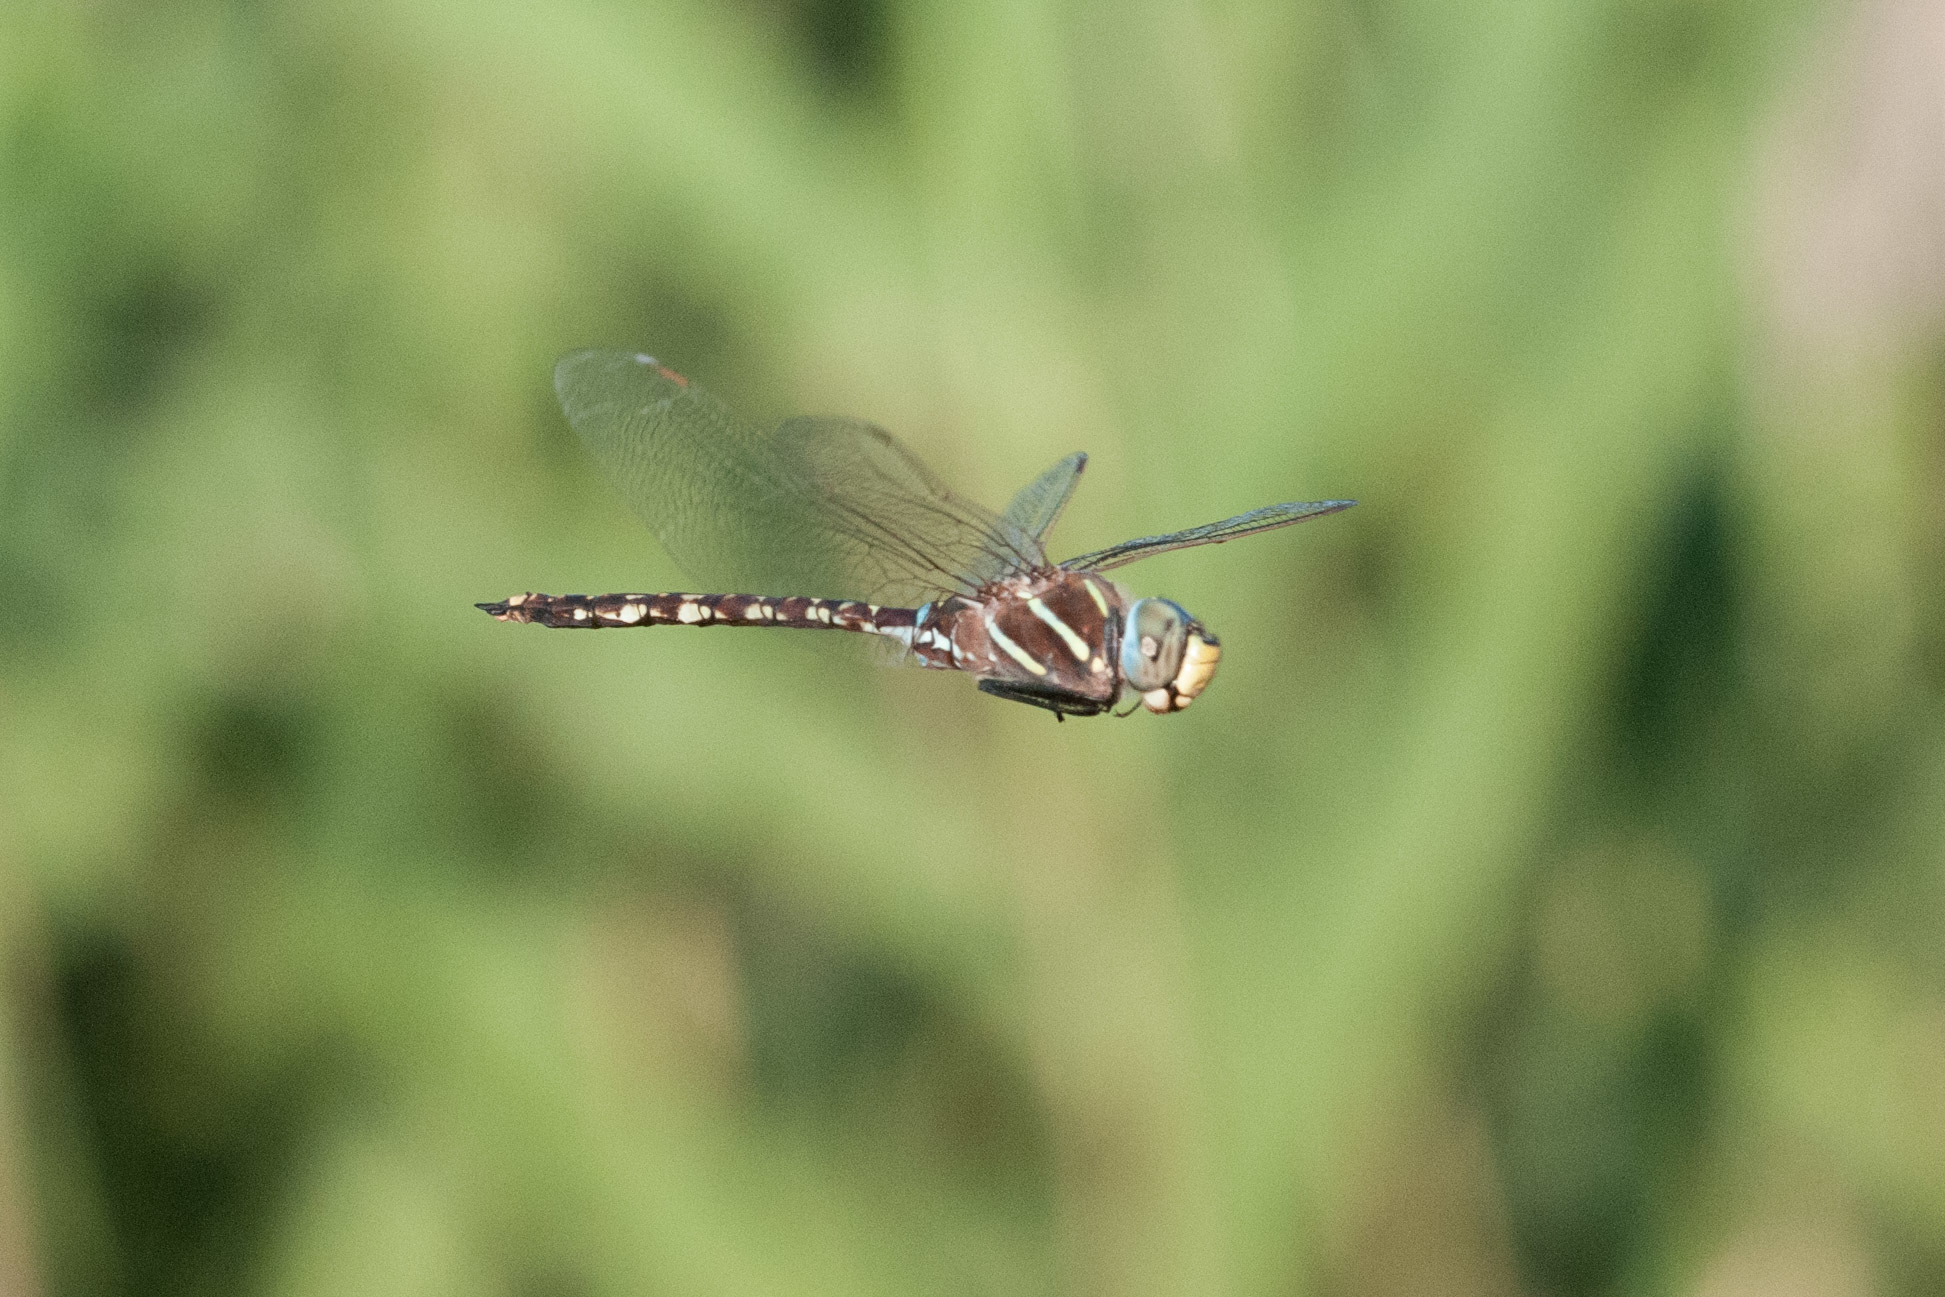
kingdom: Animalia
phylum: Arthropoda
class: Insecta
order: Odonata
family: Aeshnidae
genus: Aeshna
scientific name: Aeshna brevistyla
